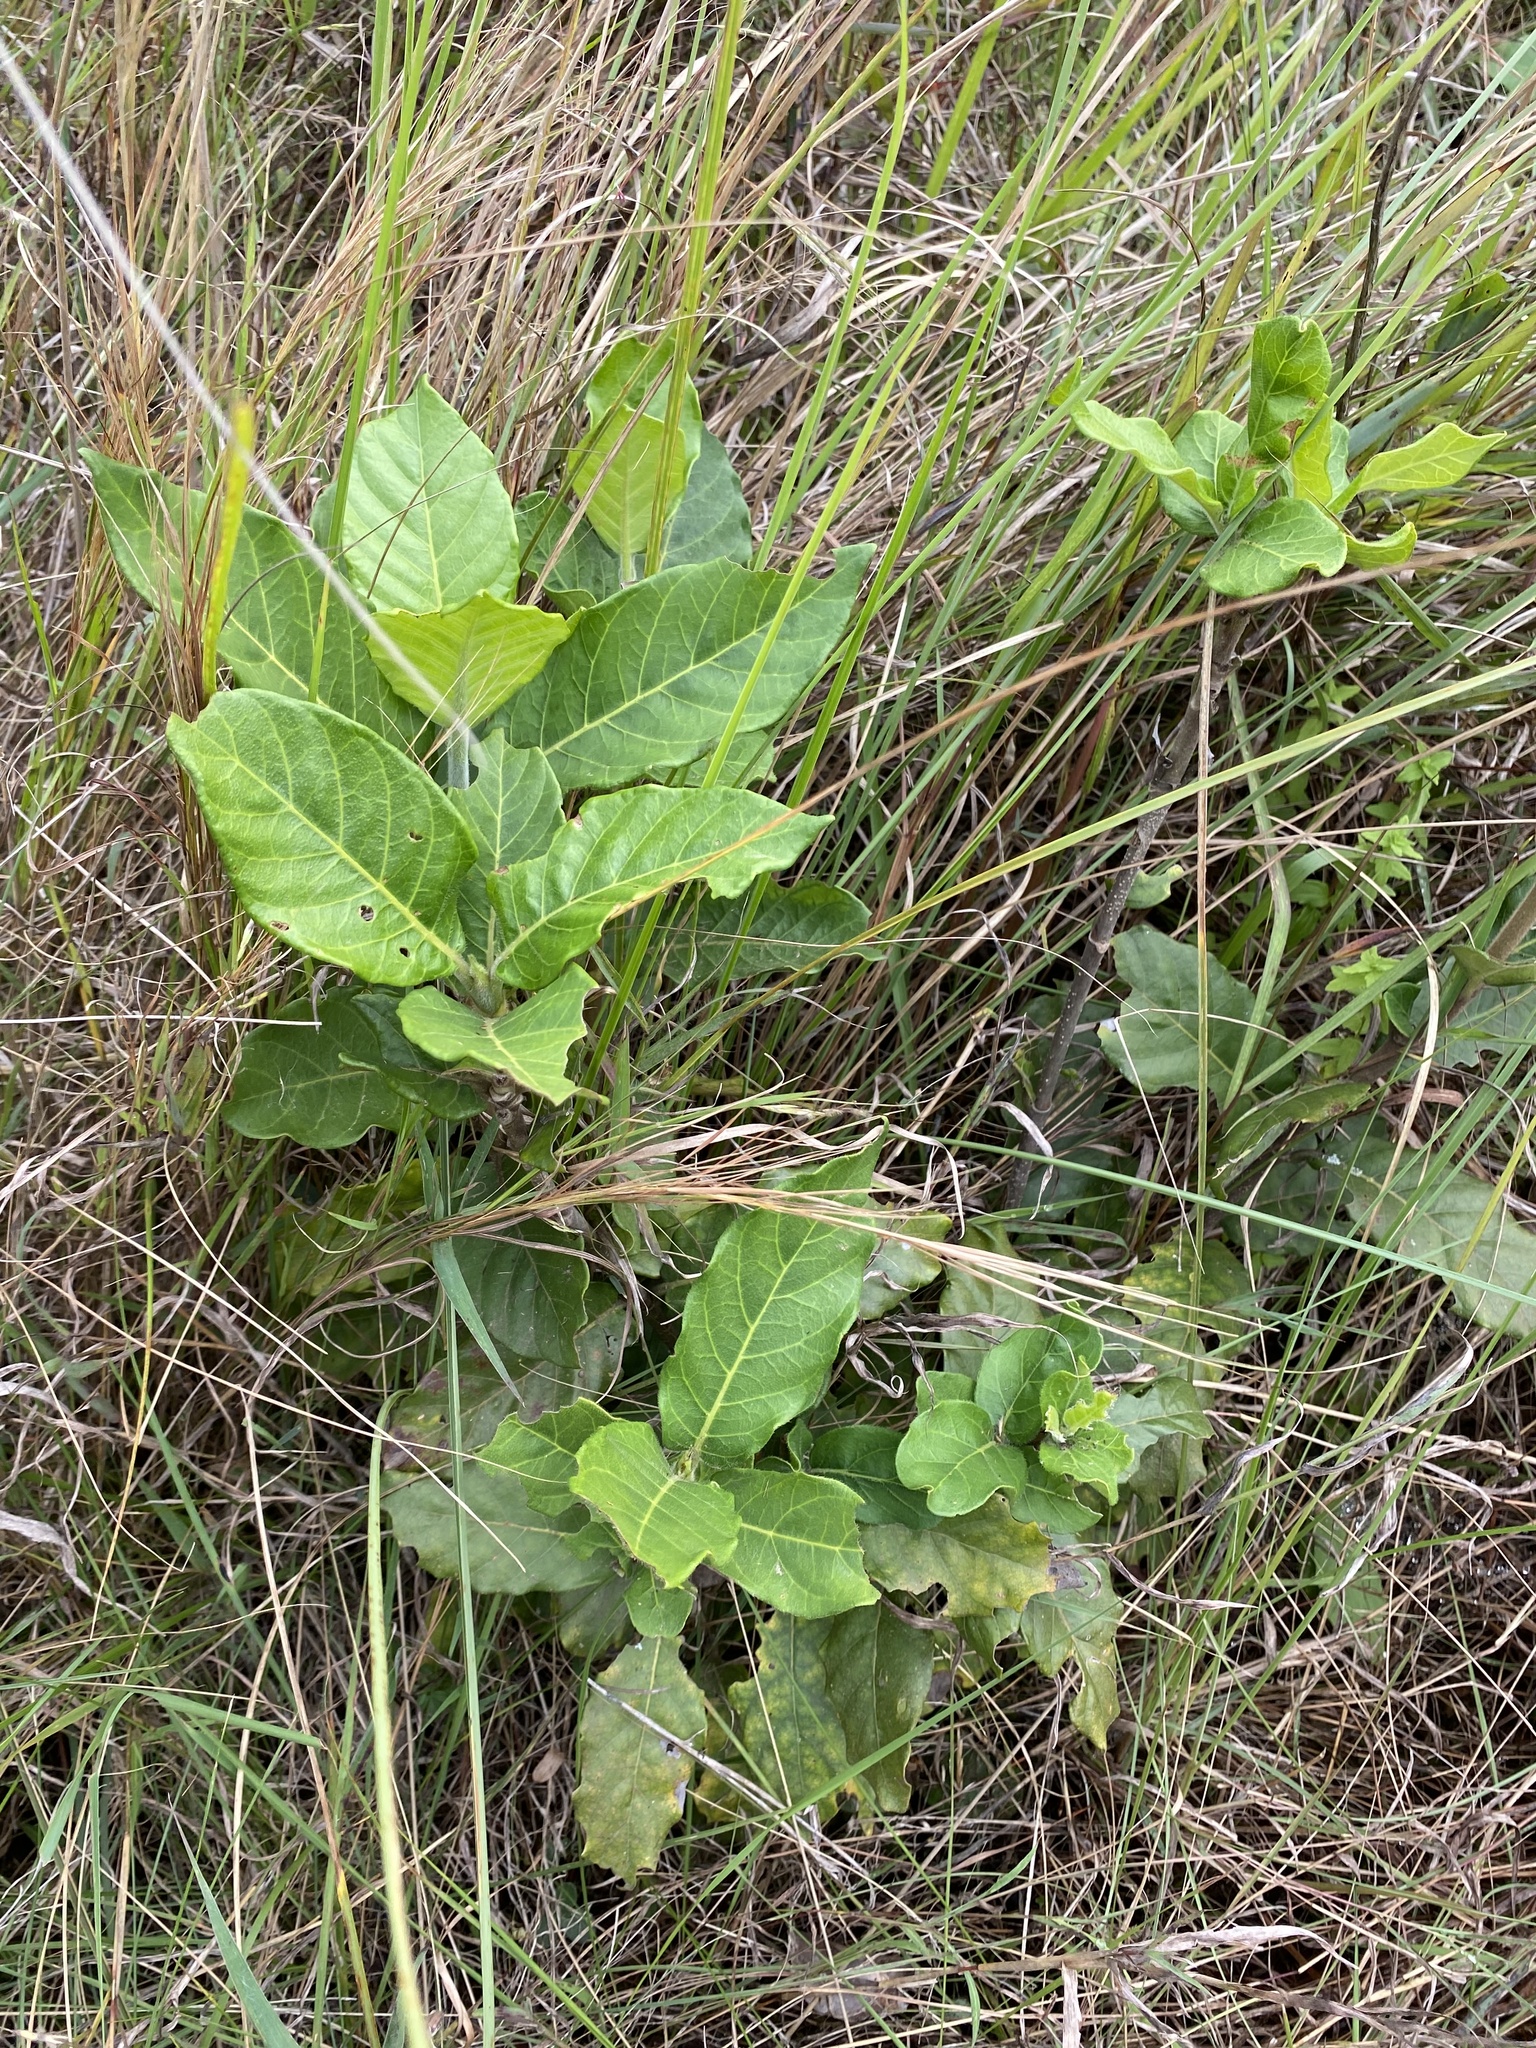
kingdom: Plantae
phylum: Tracheophyta
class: Magnoliopsida
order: Gentianales
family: Rubiaceae
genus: Burchellia
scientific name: Burchellia bubalina
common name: Wild pomegranate
